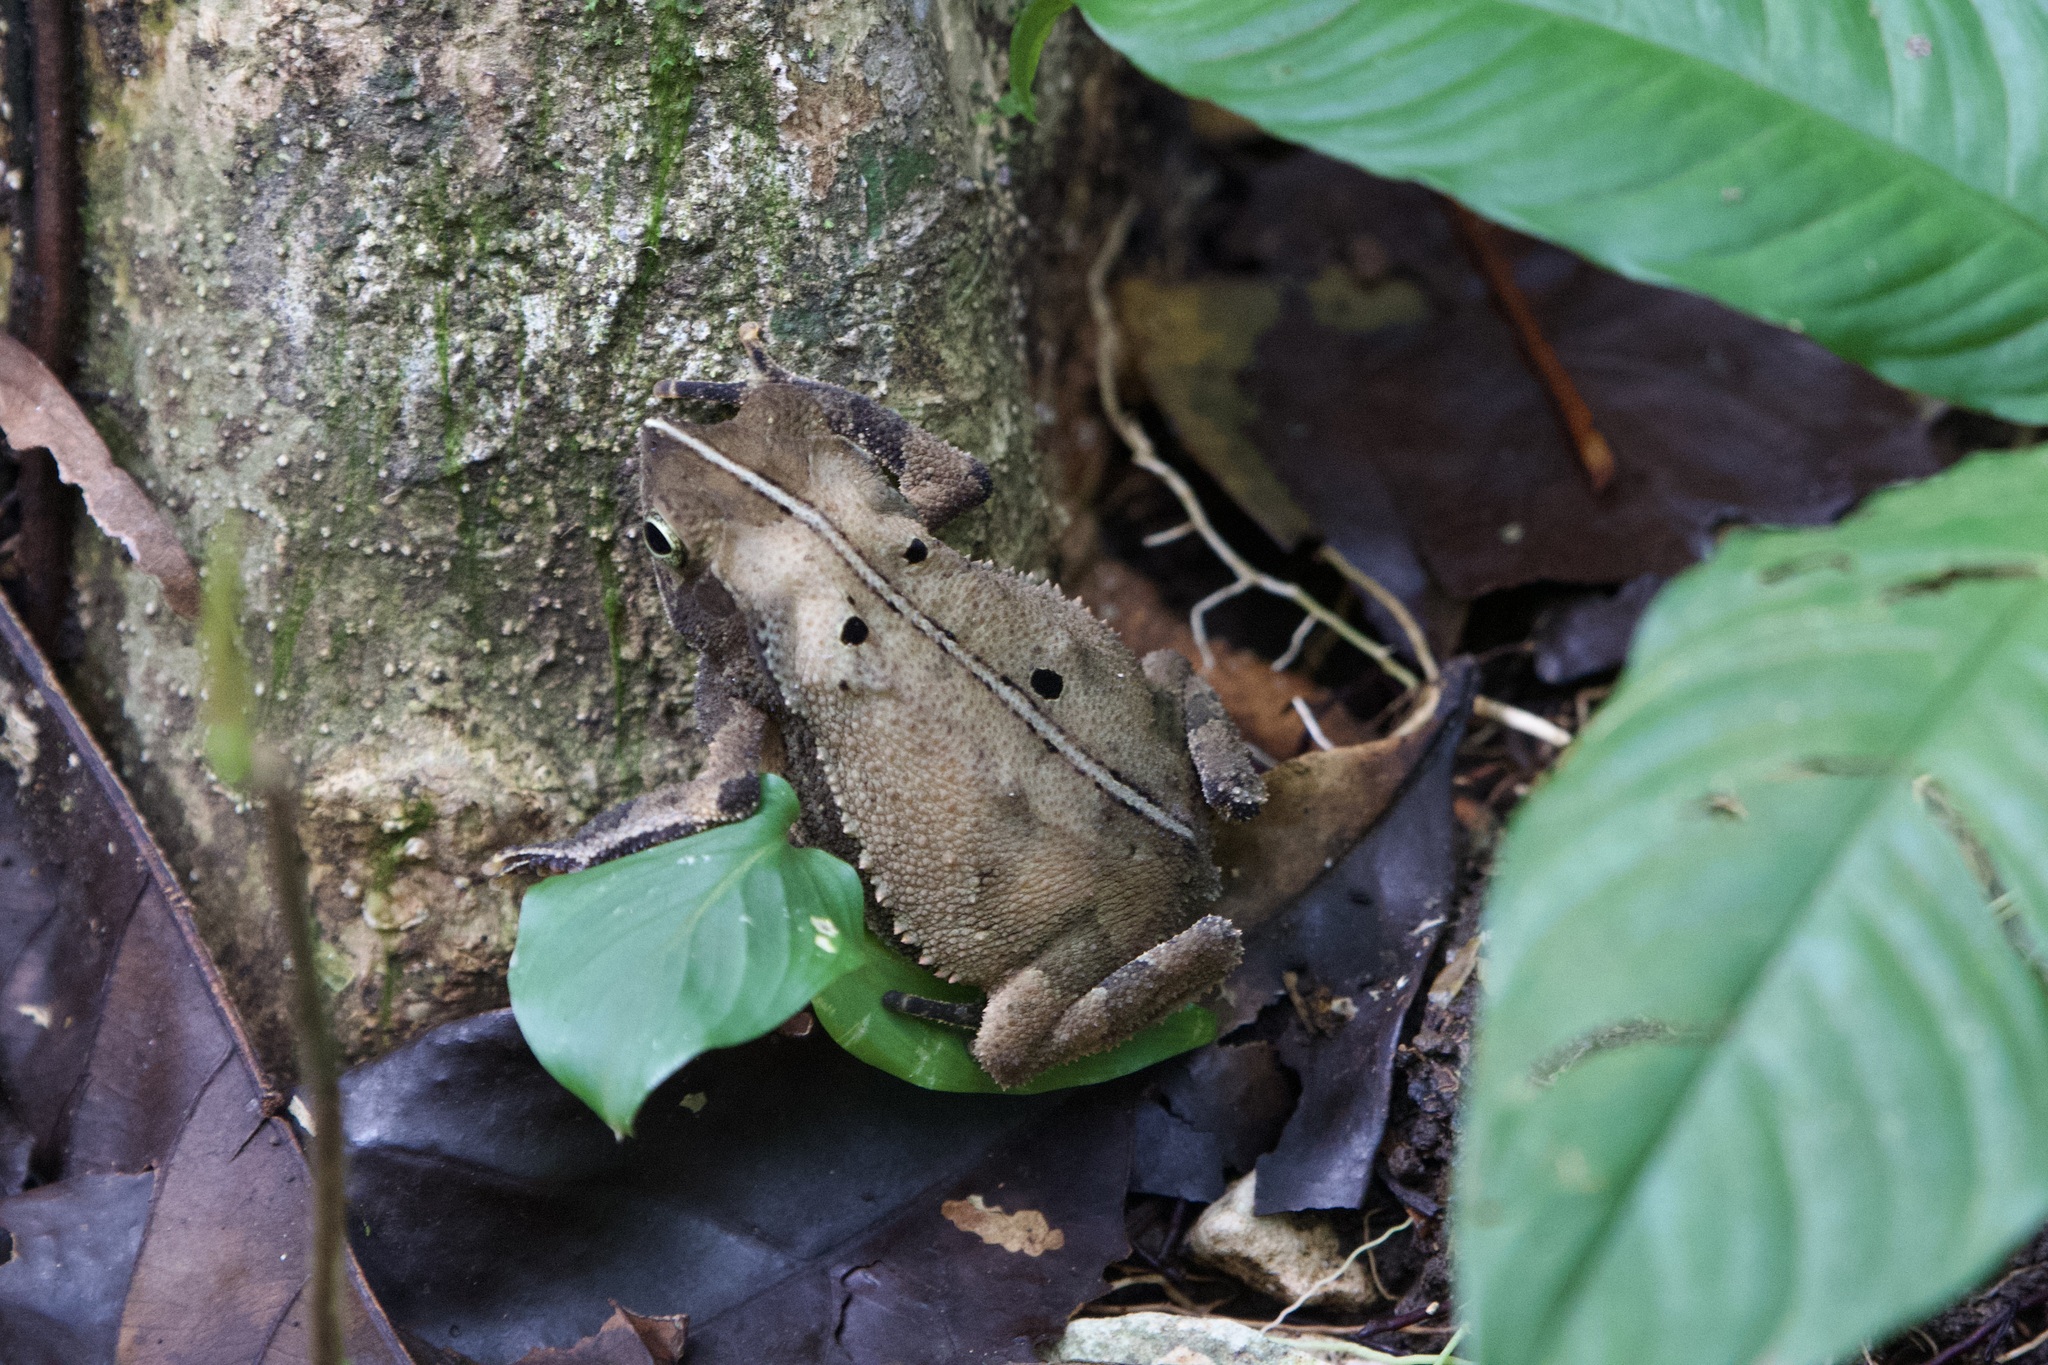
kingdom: Animalia
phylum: Chordata
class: Amphibia
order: Anura
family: Bufonidae
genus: Rhinella
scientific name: Rhinella alata
